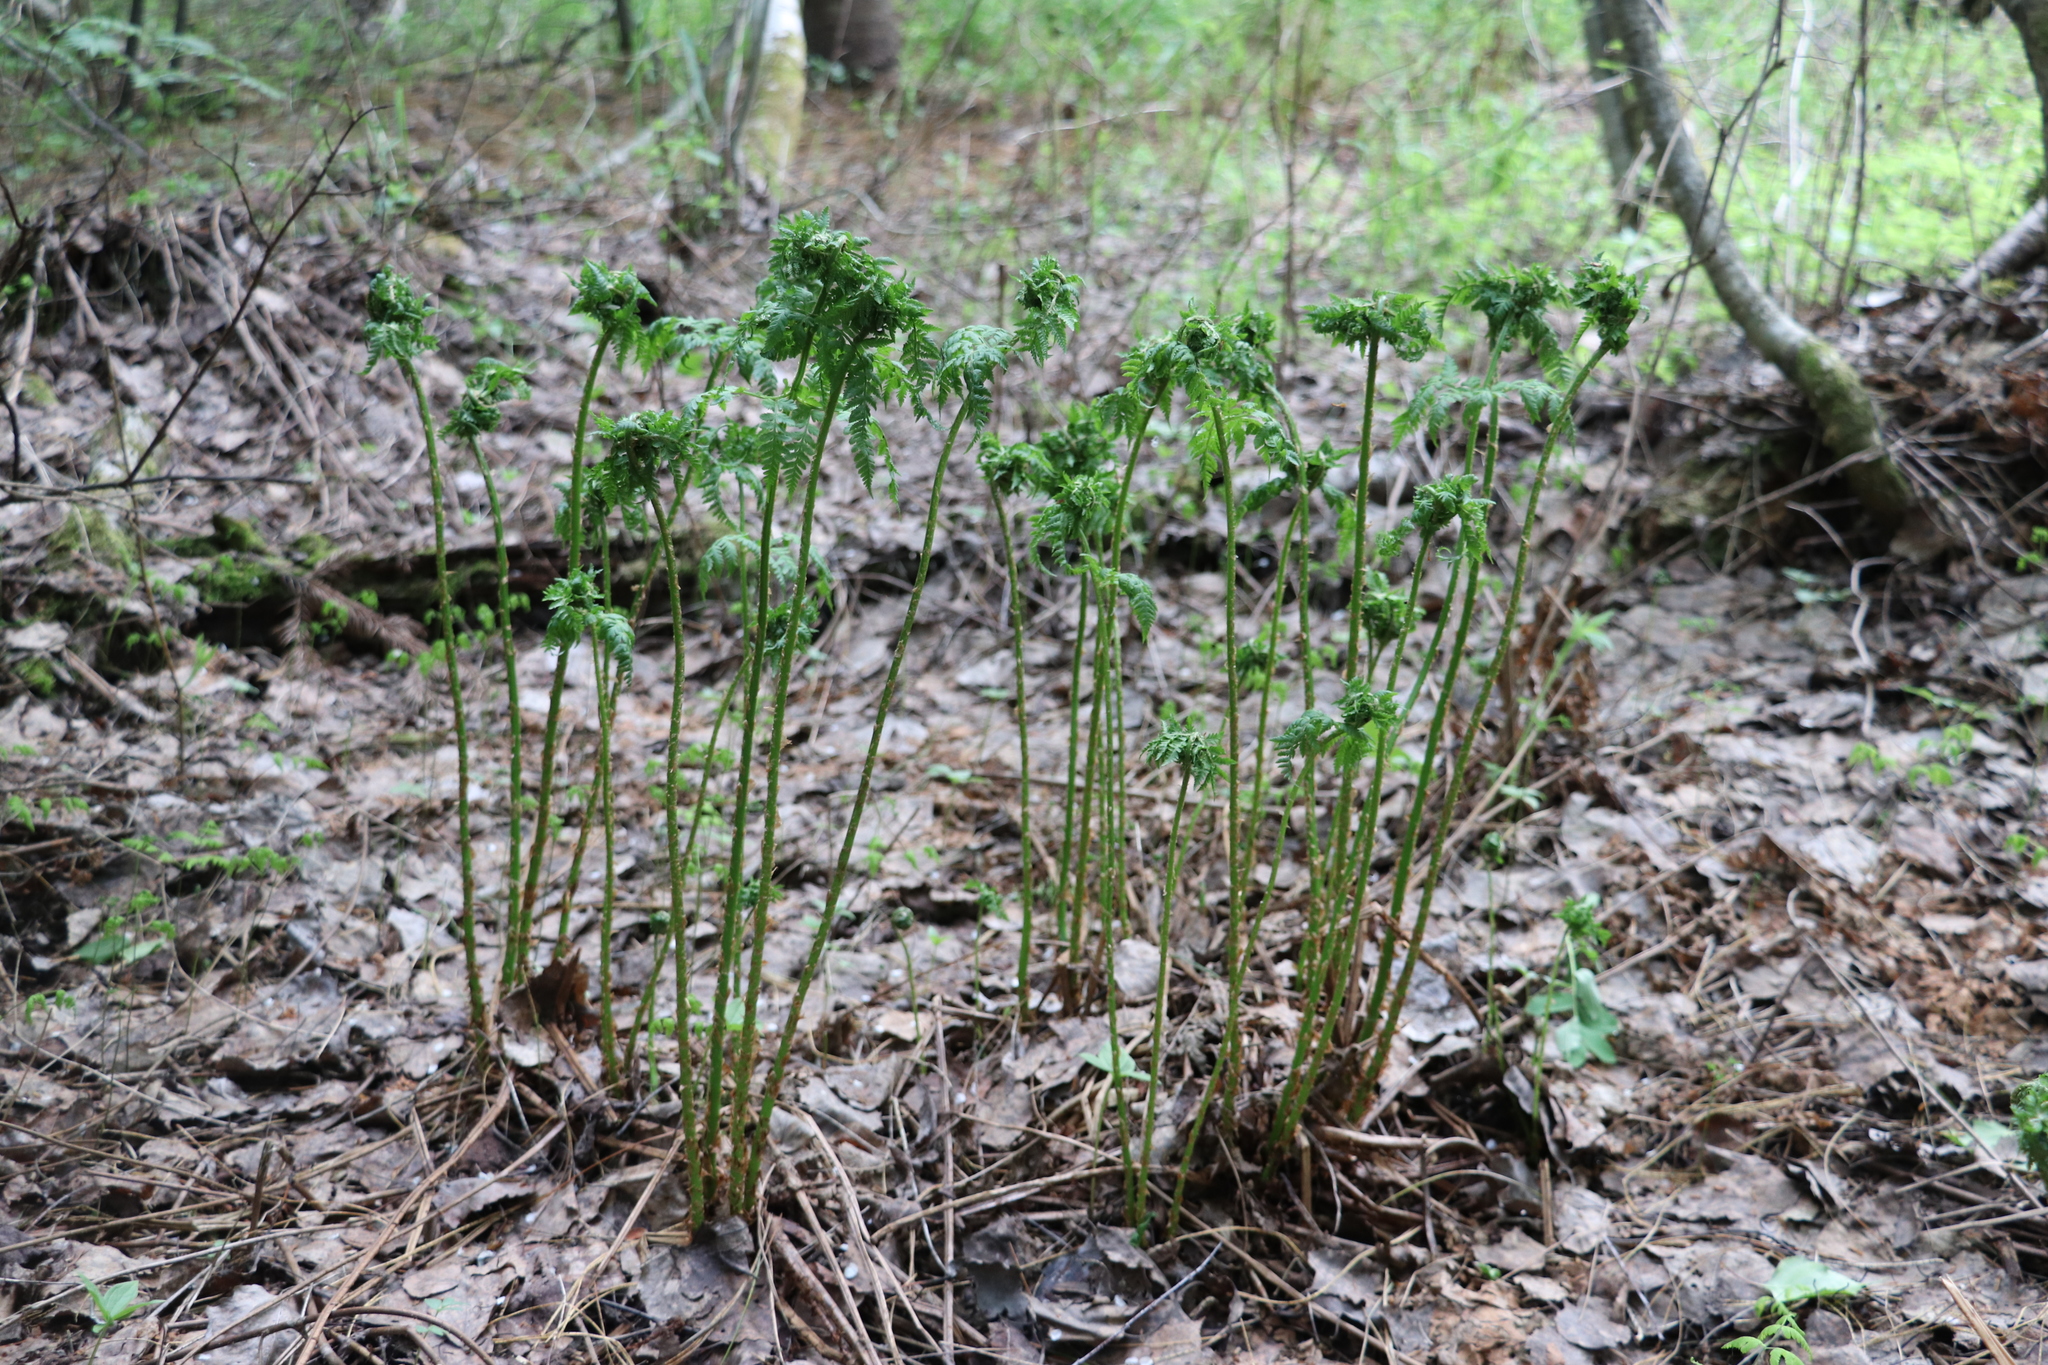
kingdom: Plantae
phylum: Tracheophyta
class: Polypodiopsida
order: Polypodiales
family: Athyriaceae
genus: Athyrium
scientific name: Athyrium filix-femina
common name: Lady fern
